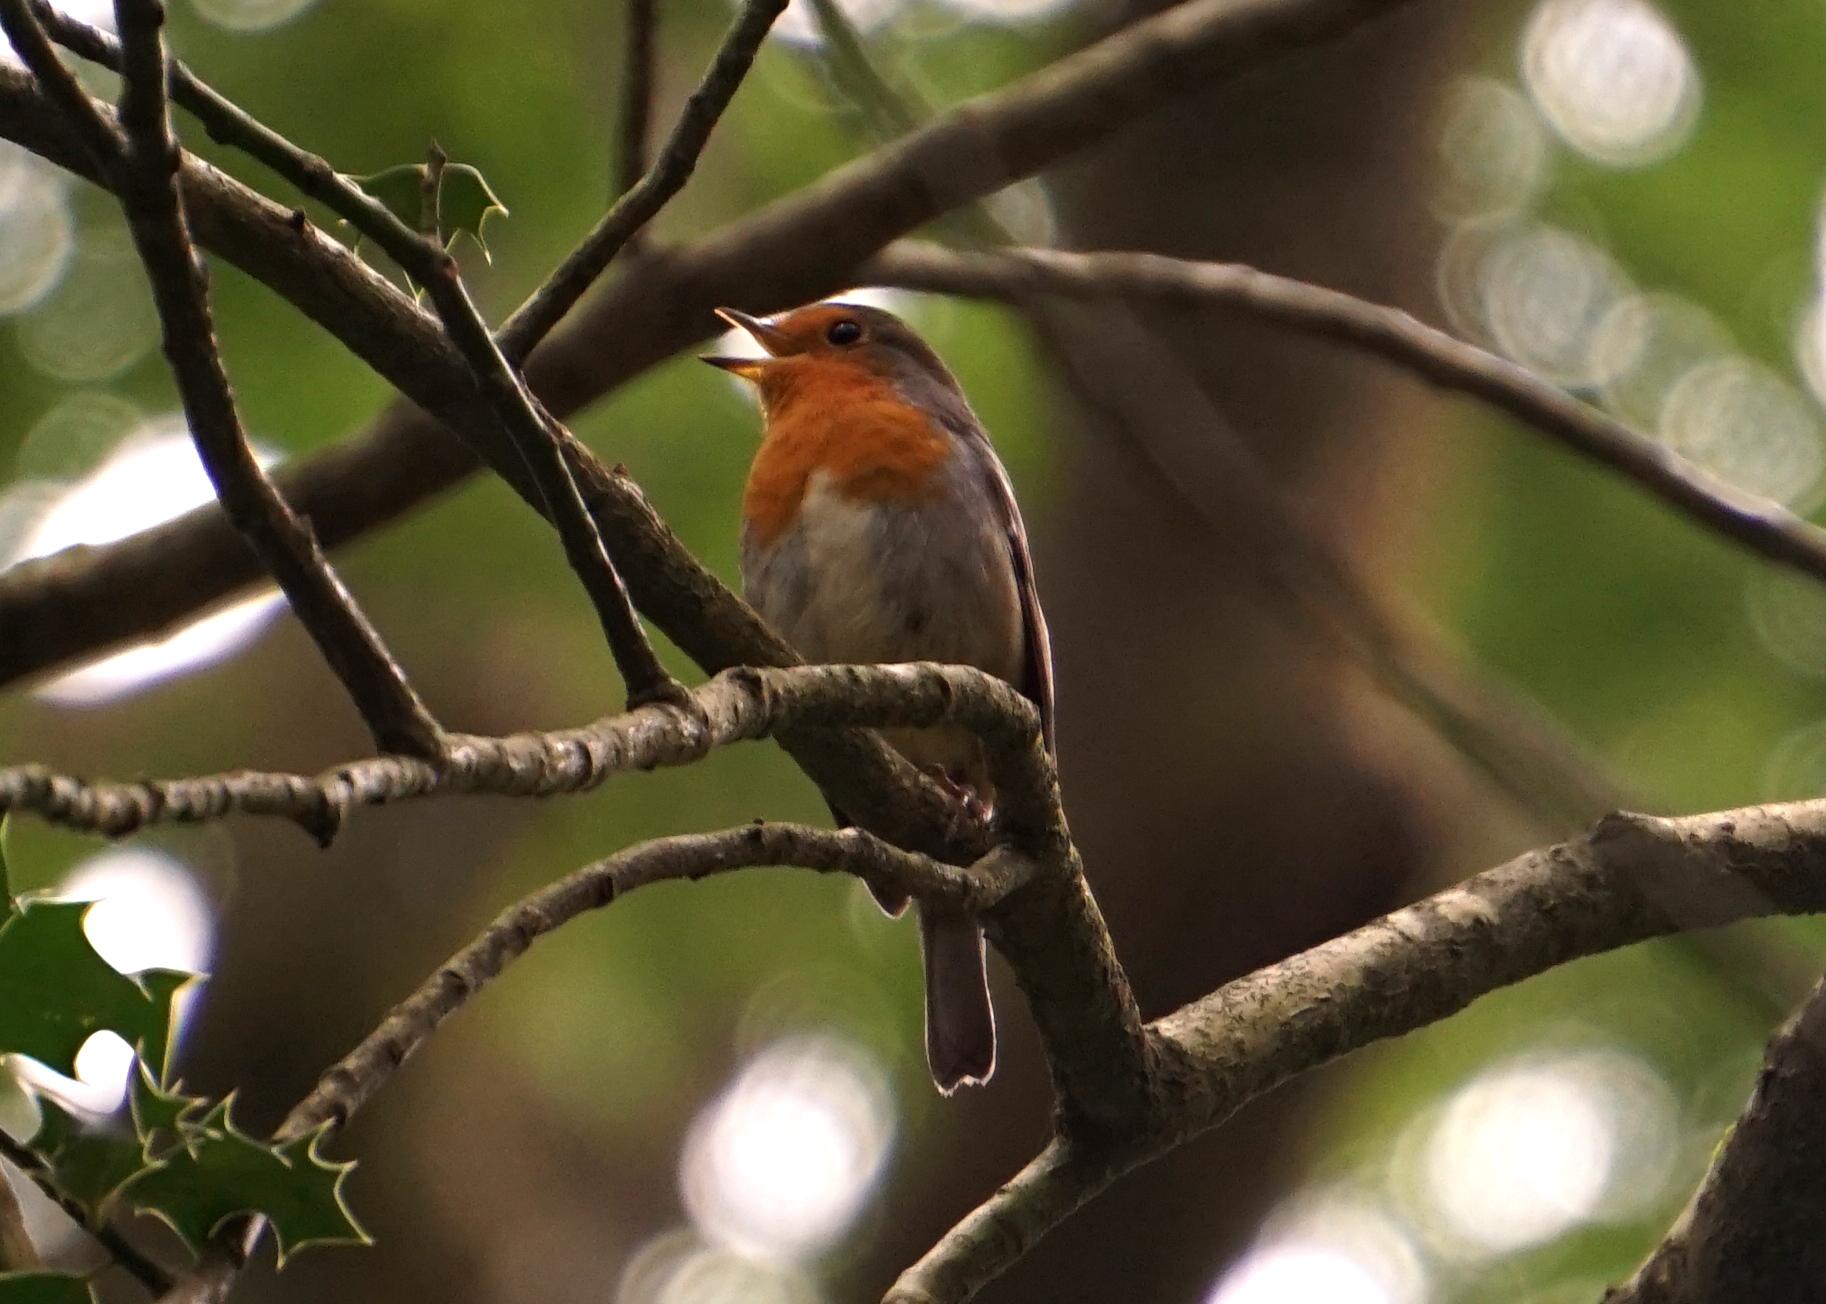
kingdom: Animalia
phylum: Chordata
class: Aves
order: Passeriformes
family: Muscicapidae
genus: Erithacus
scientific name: Erithacus rubecula
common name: European robin
